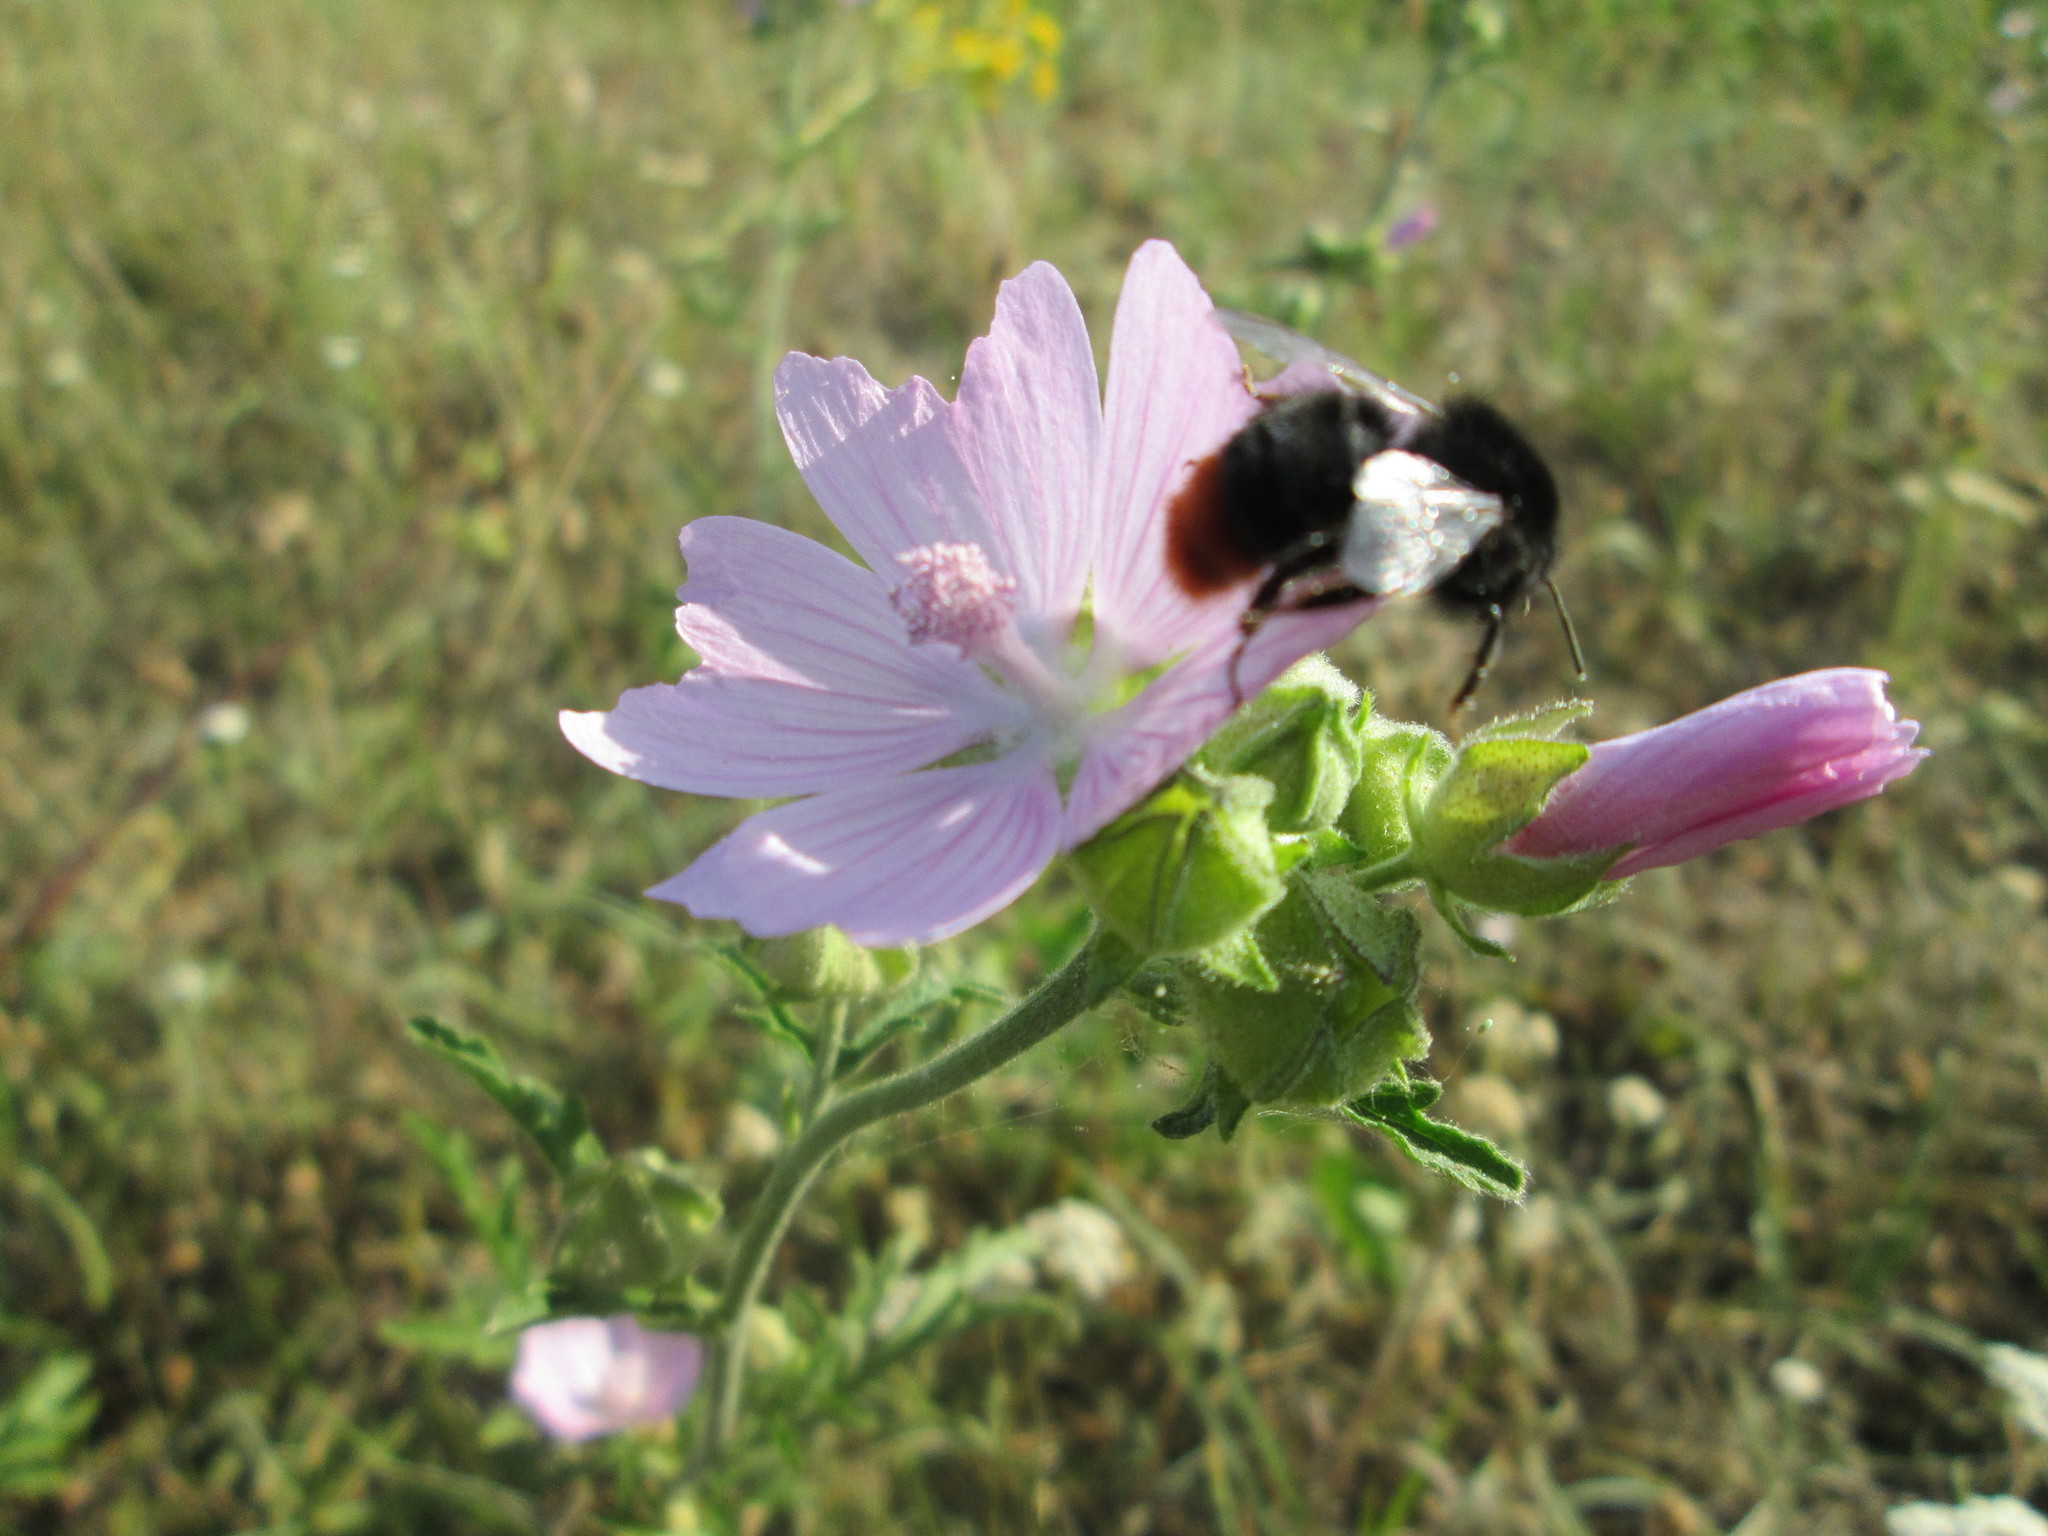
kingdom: Plantae
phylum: Tracheophyta
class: Magnoliopsida
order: Malvales
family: Malvaceae
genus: Malva
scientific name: Malva alcea
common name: Greater musk-mallow
